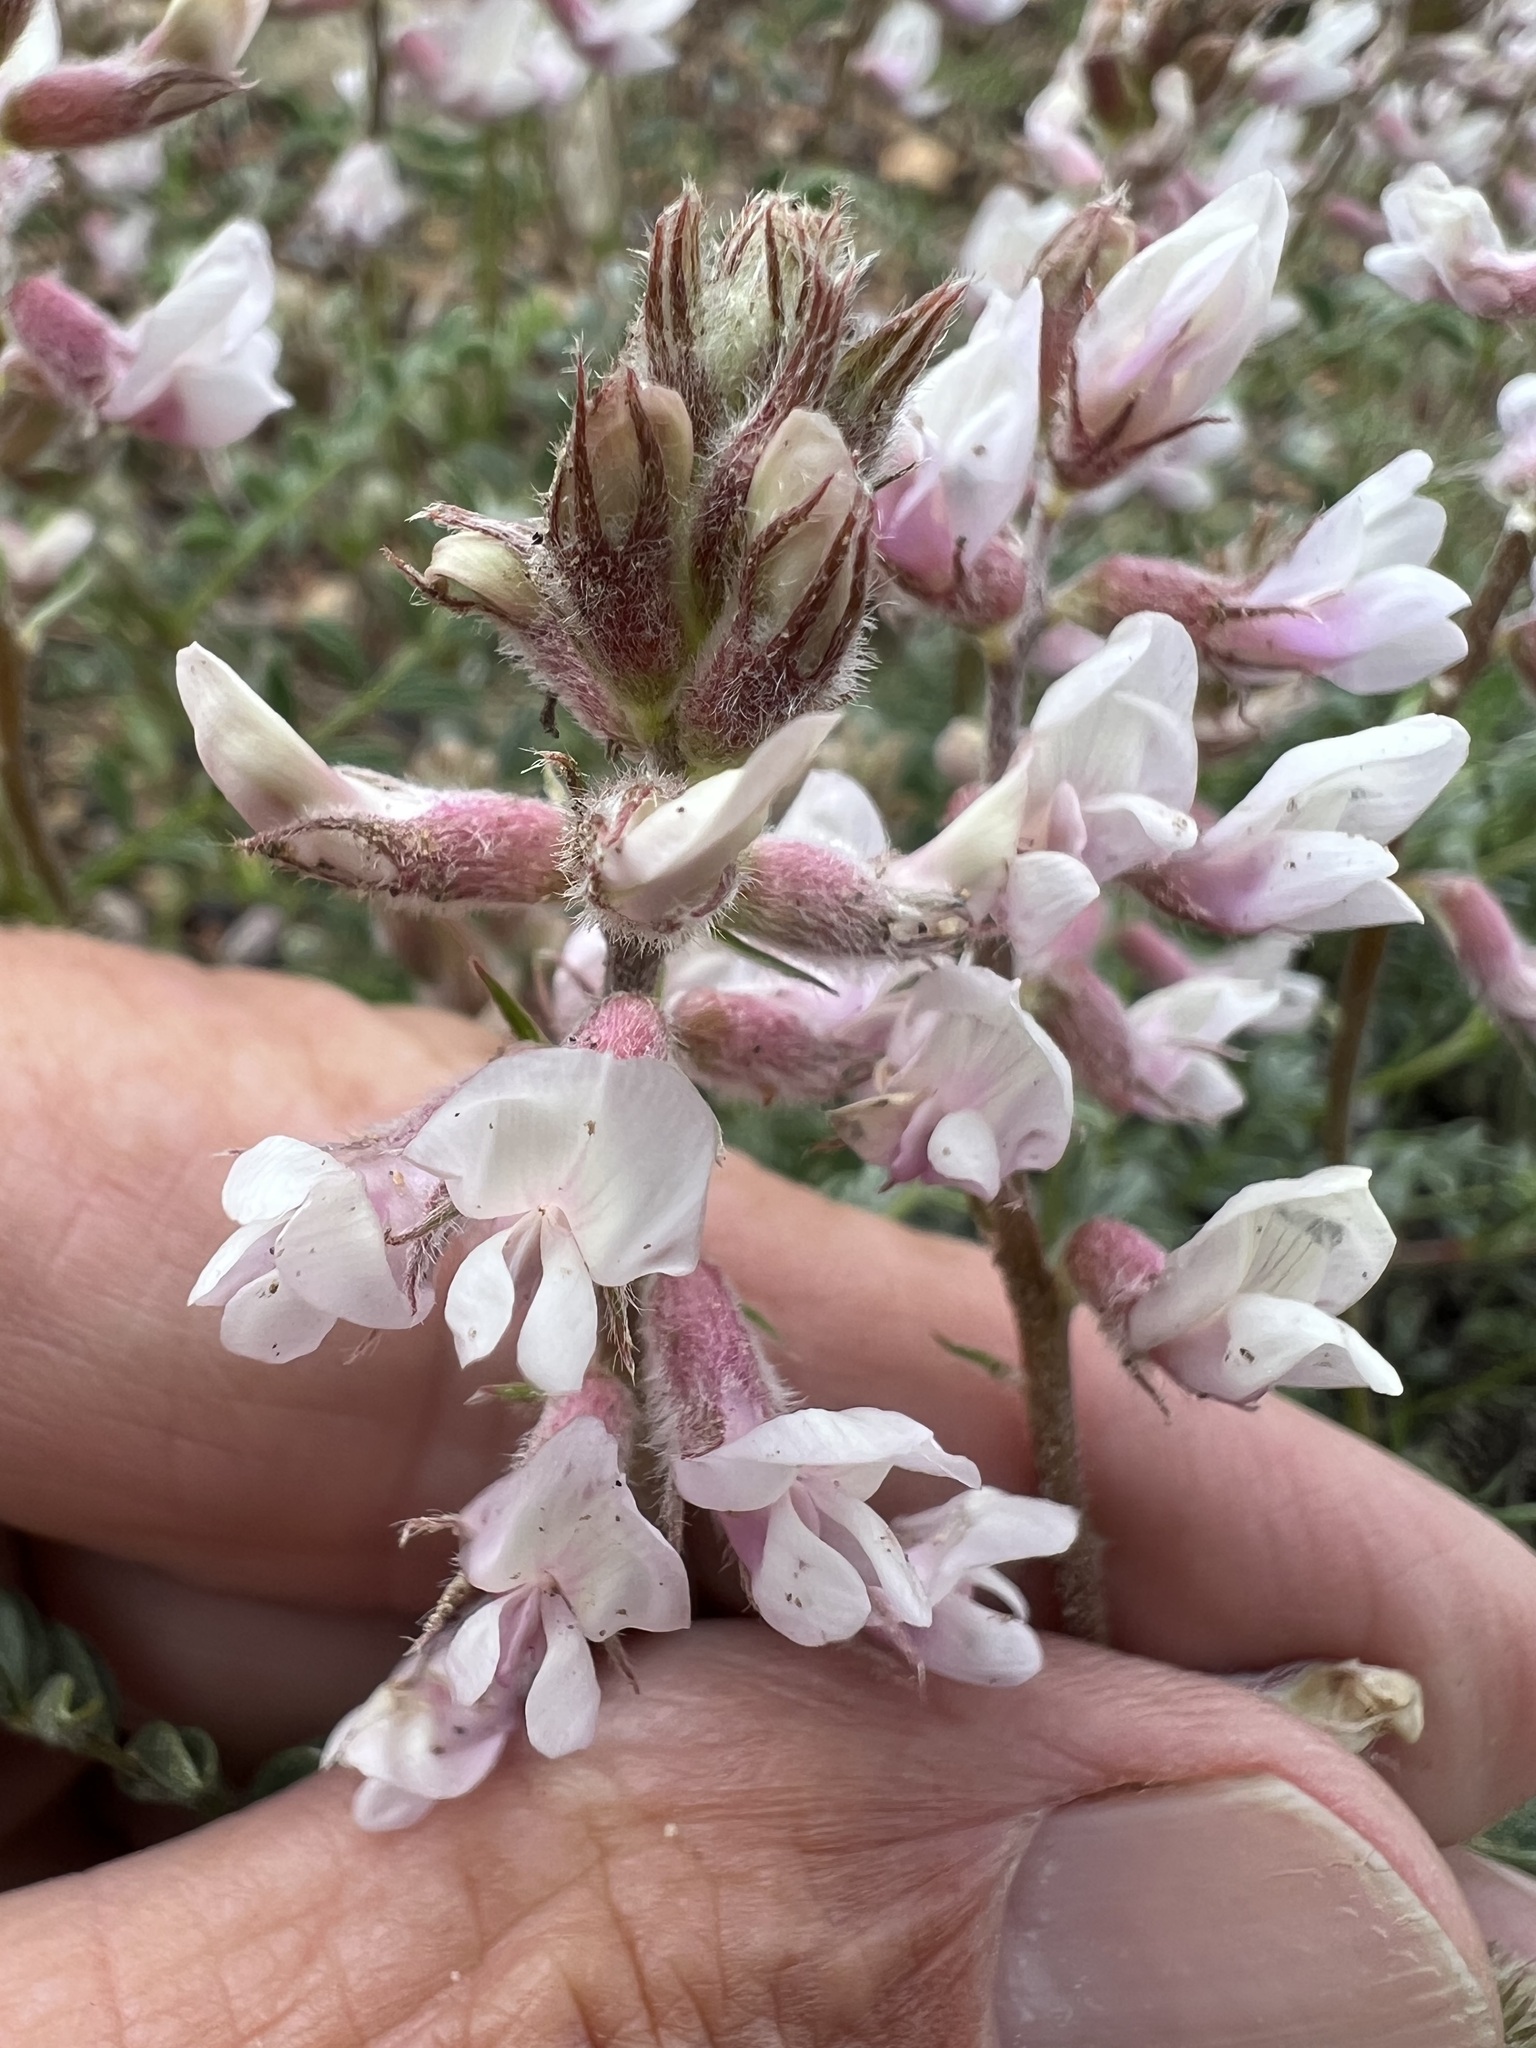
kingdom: Plantae
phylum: Tracheophyta
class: Magnoliopsida
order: Fabales
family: Fabaceae
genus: Astragalus
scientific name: Astragalus andersonii
